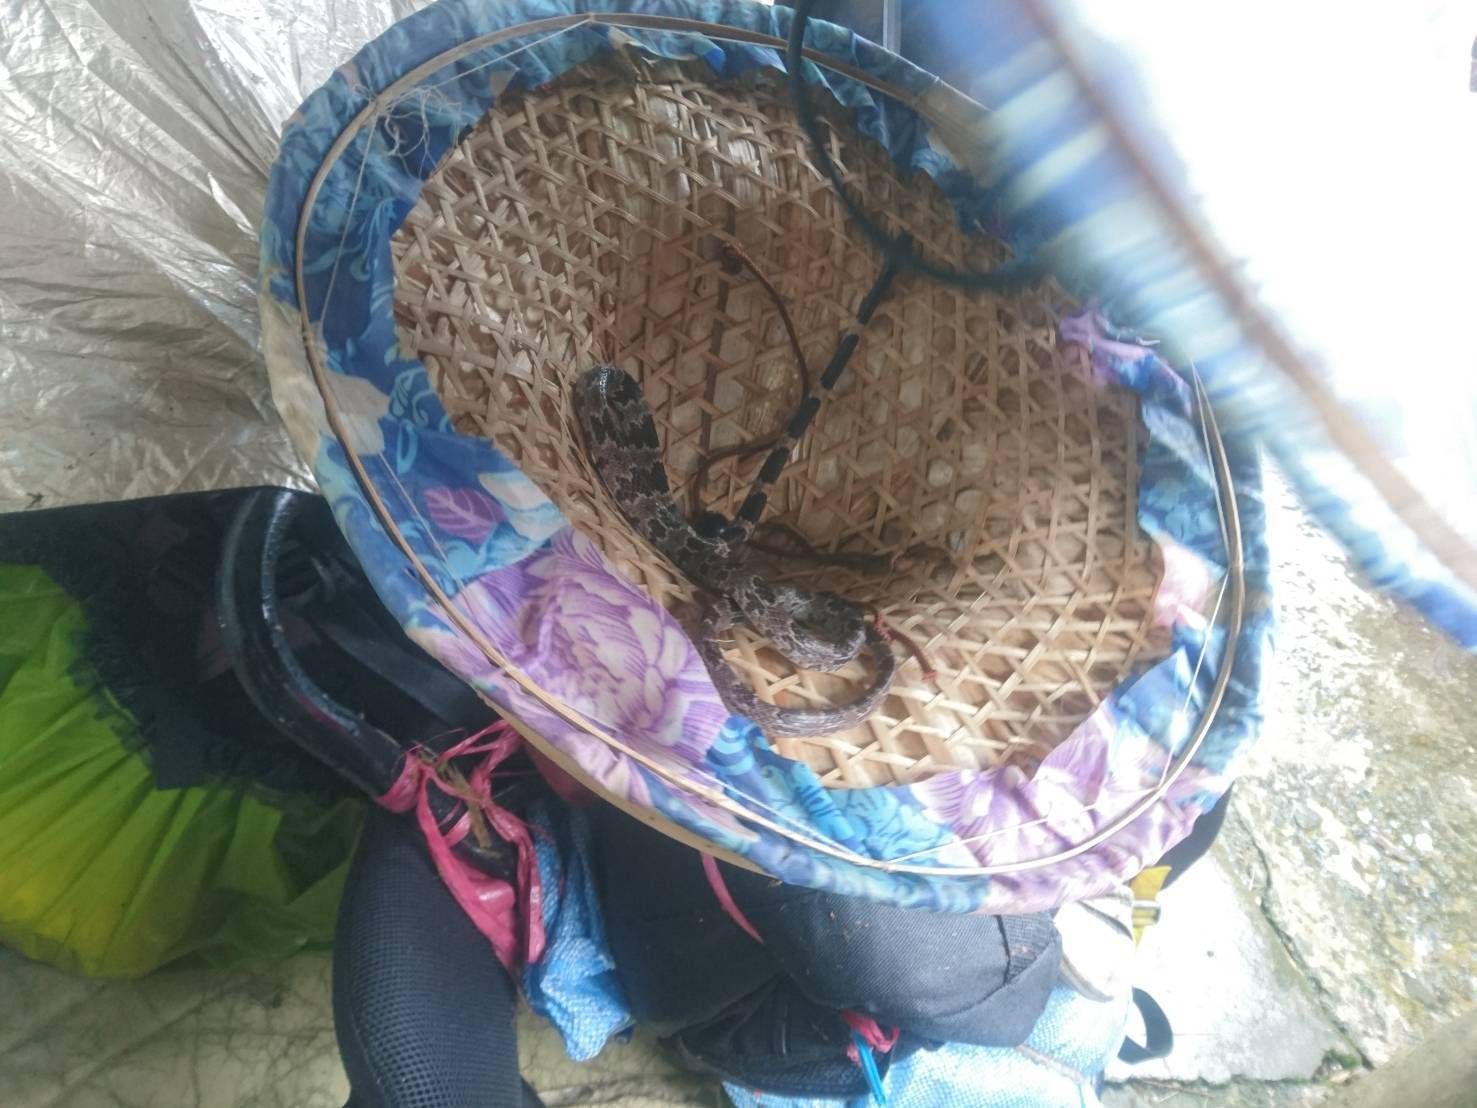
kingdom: Animalia
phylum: Chordata
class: Squamata
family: Colubridae
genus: Lycodon
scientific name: Lycodon ruhstrati
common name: Rushstrat's wolf snake
